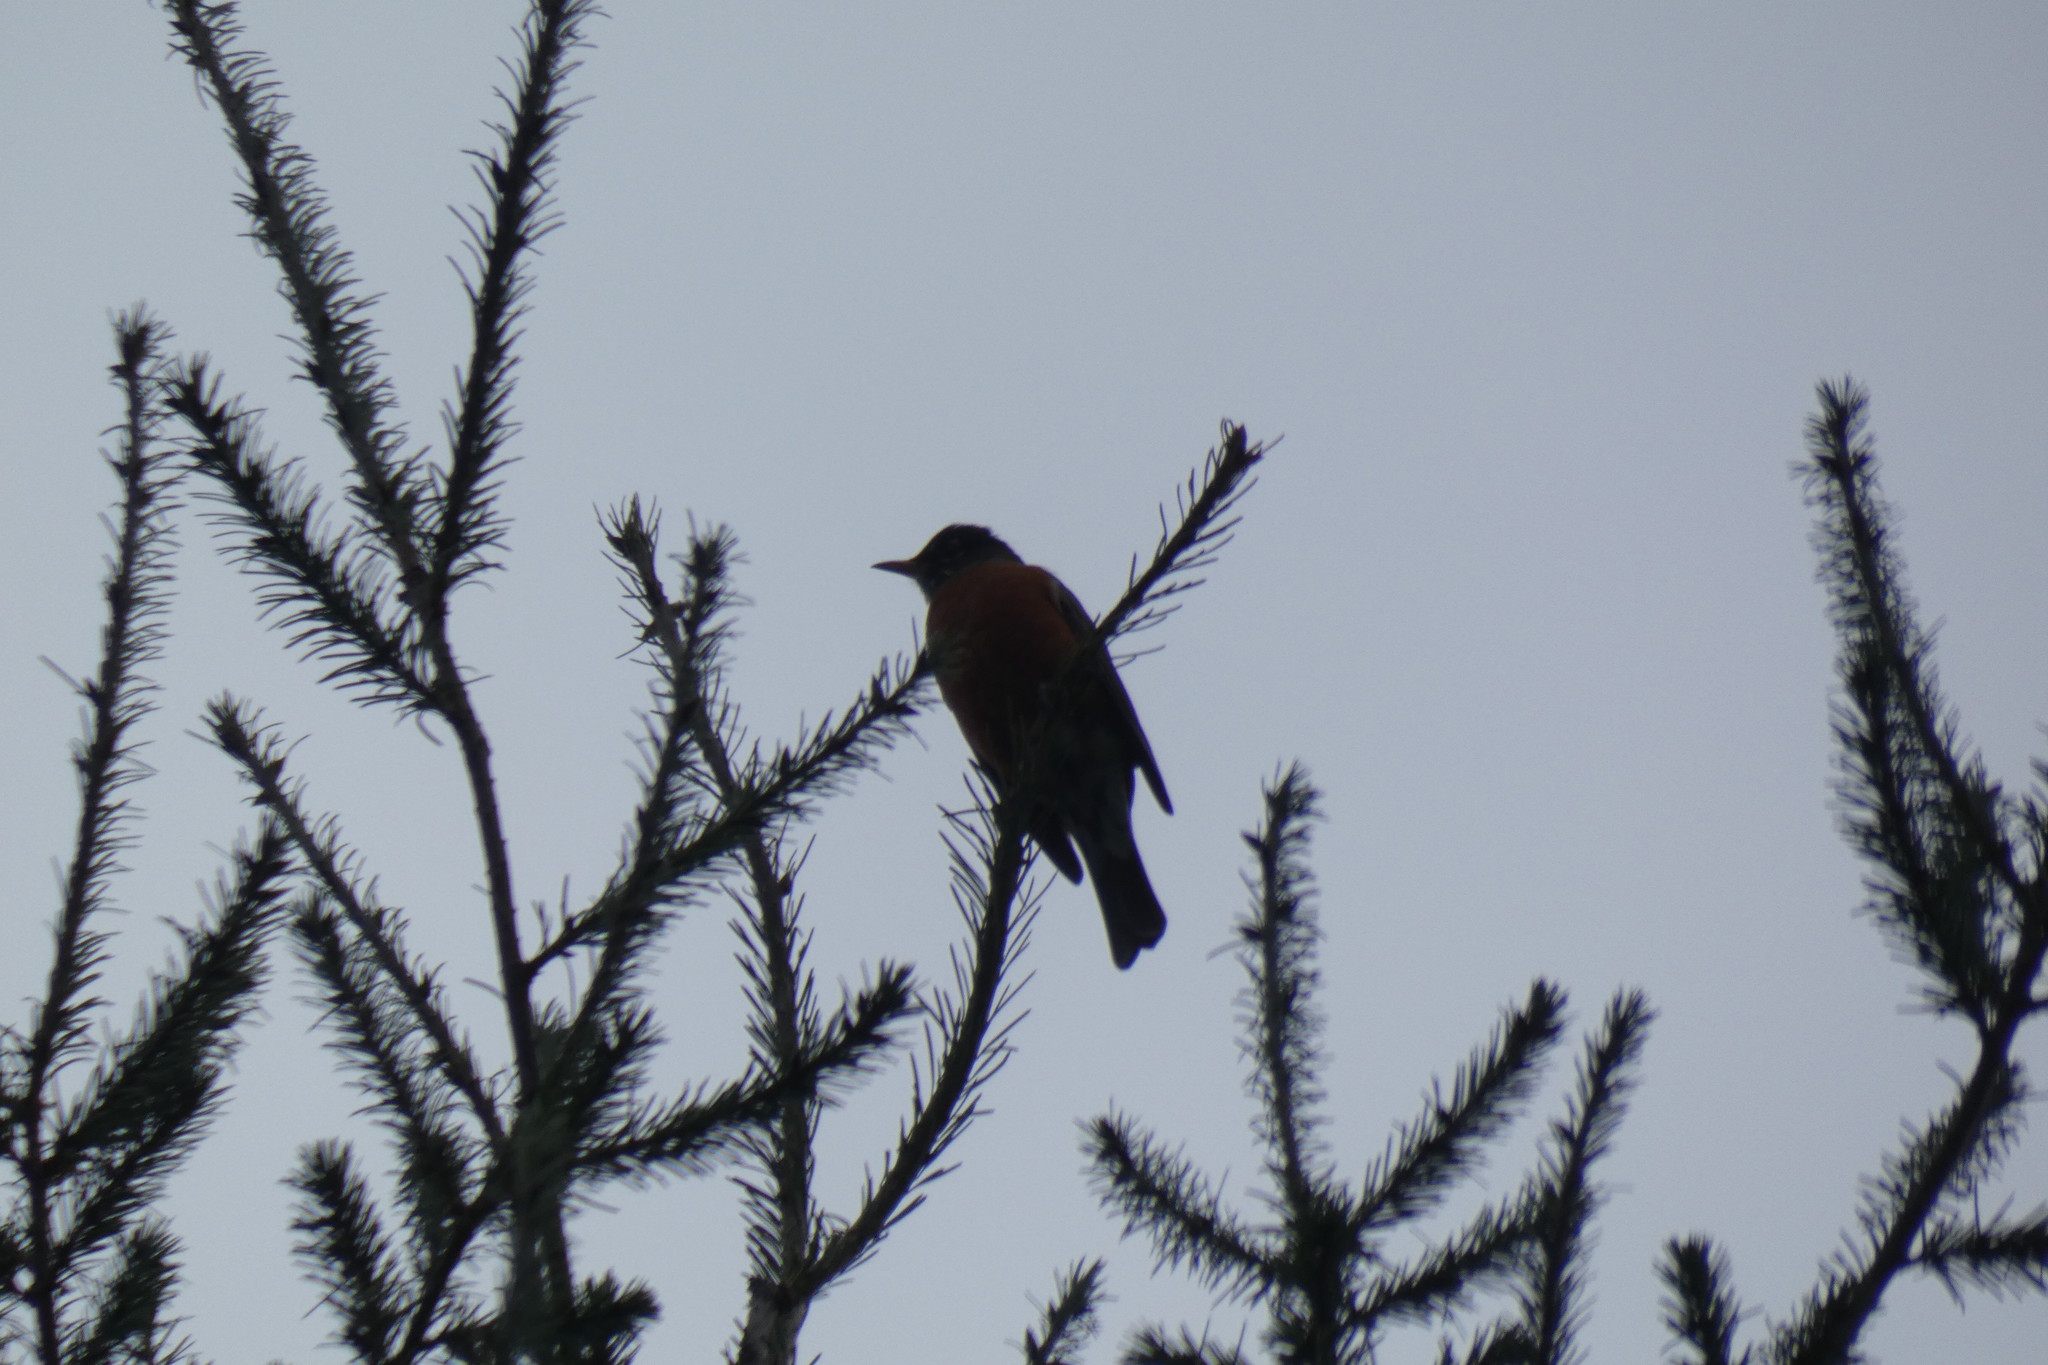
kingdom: Animalia
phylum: Chordata
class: Aves
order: Passeriformes
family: Turdidae
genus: Turdus
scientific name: Turdus migratorius
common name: American robin
